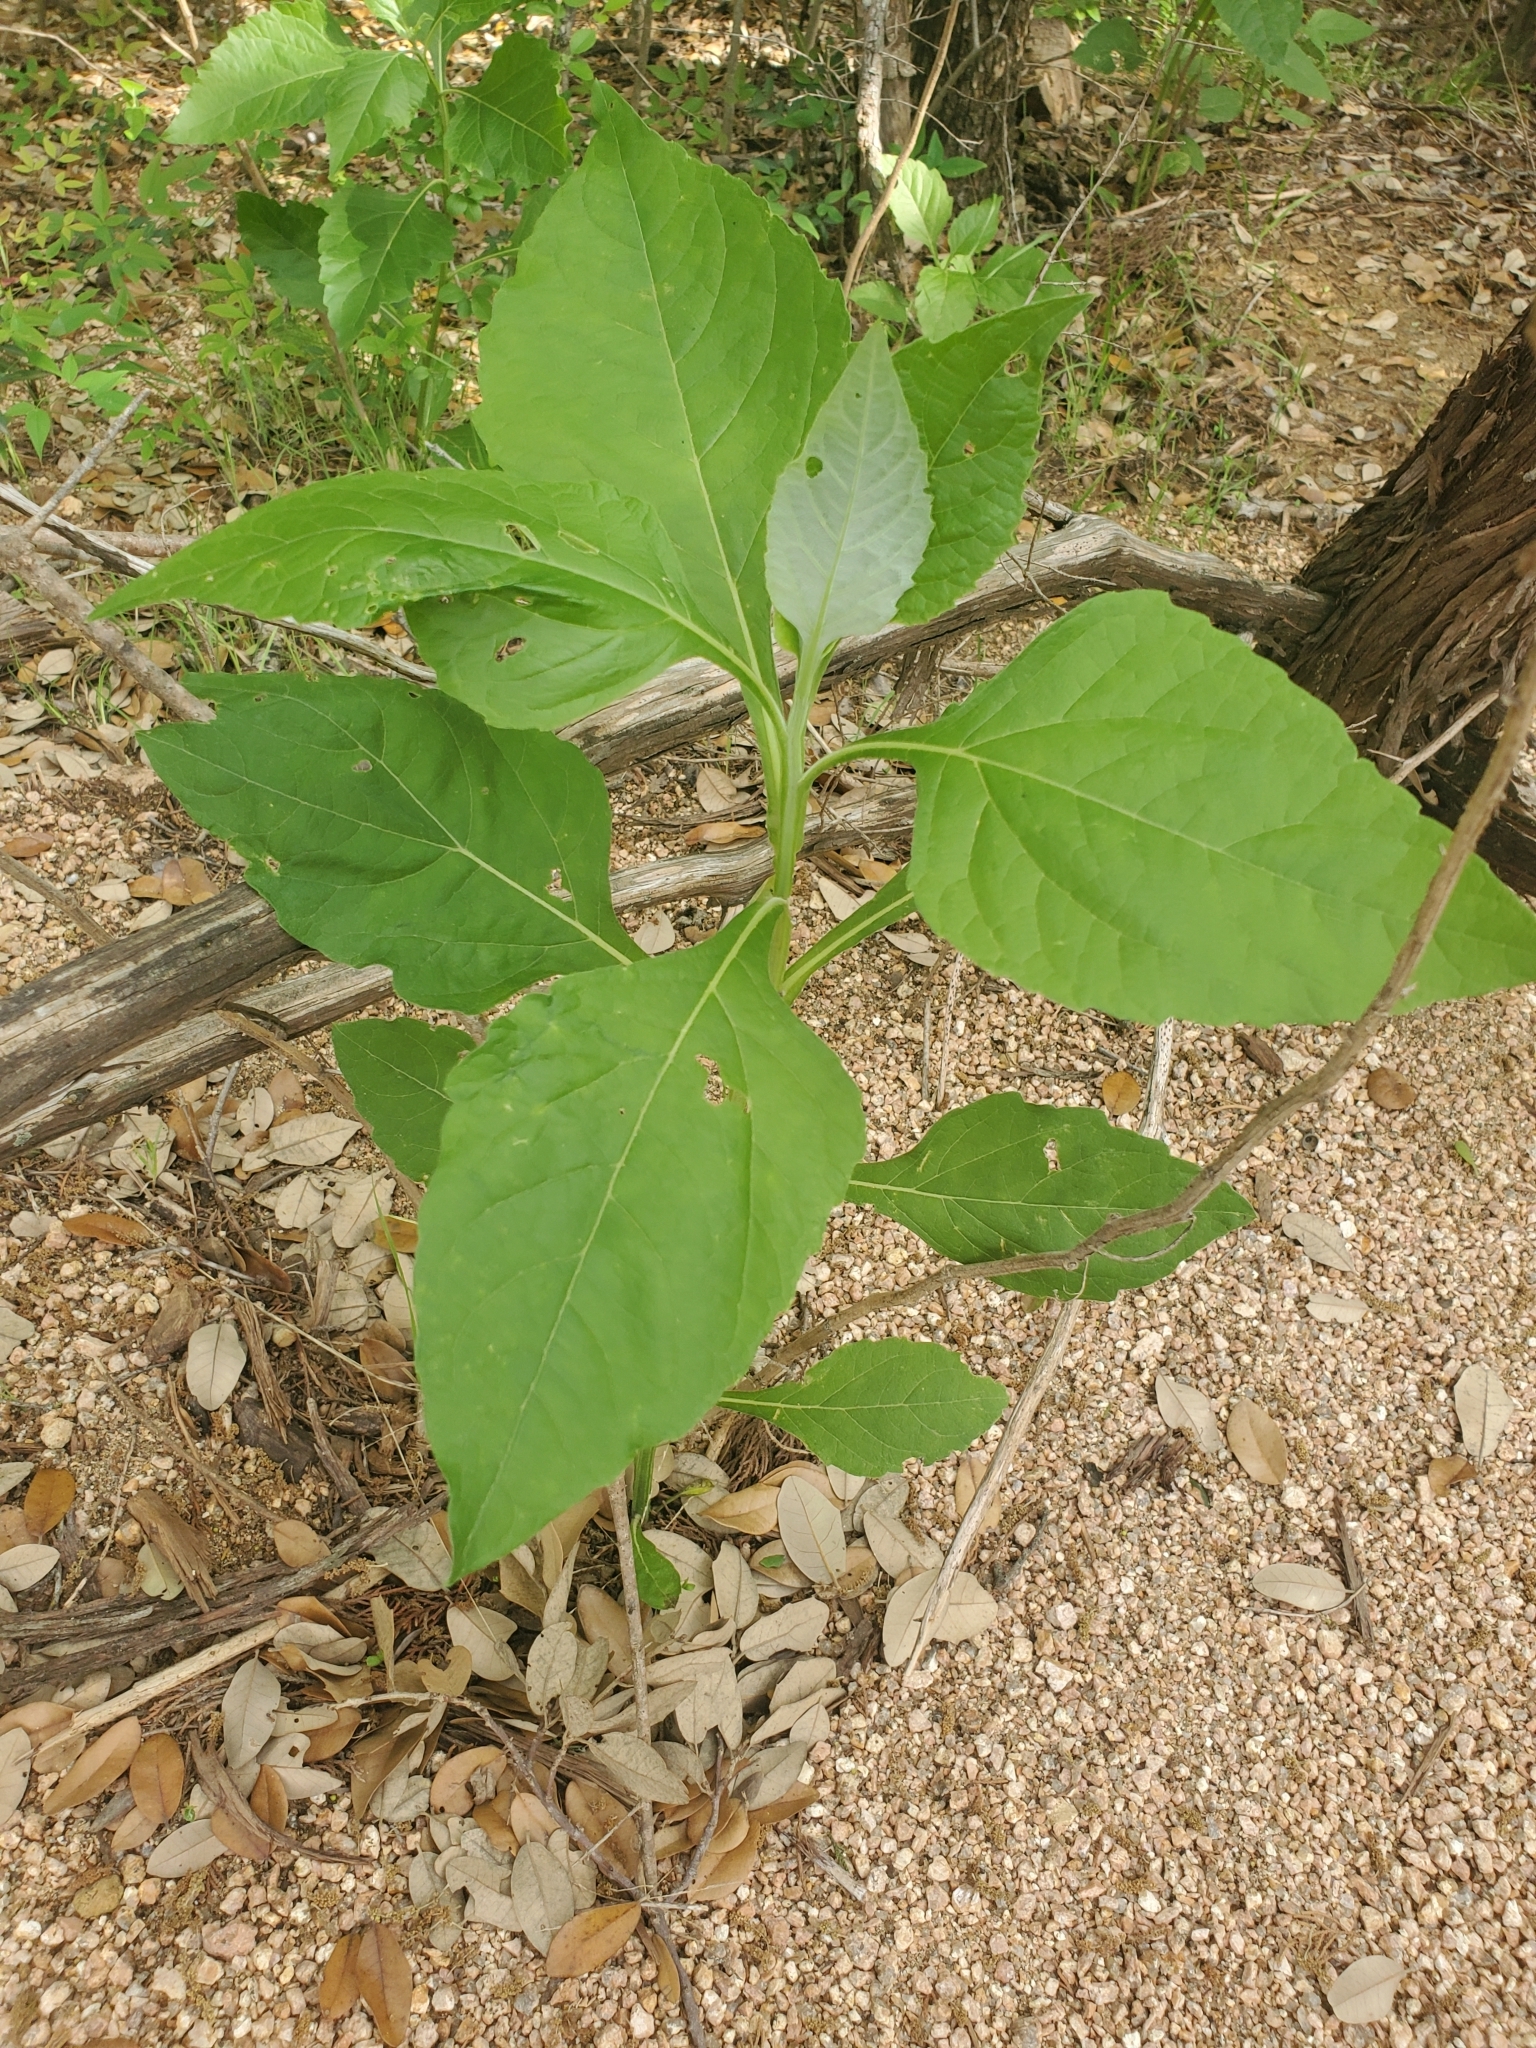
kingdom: Plantae
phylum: Tracheophyta
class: Magnoliopsida
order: Asterales
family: Asteraceae
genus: Verbesina
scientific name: Verbesina virginica
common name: Frostweed
